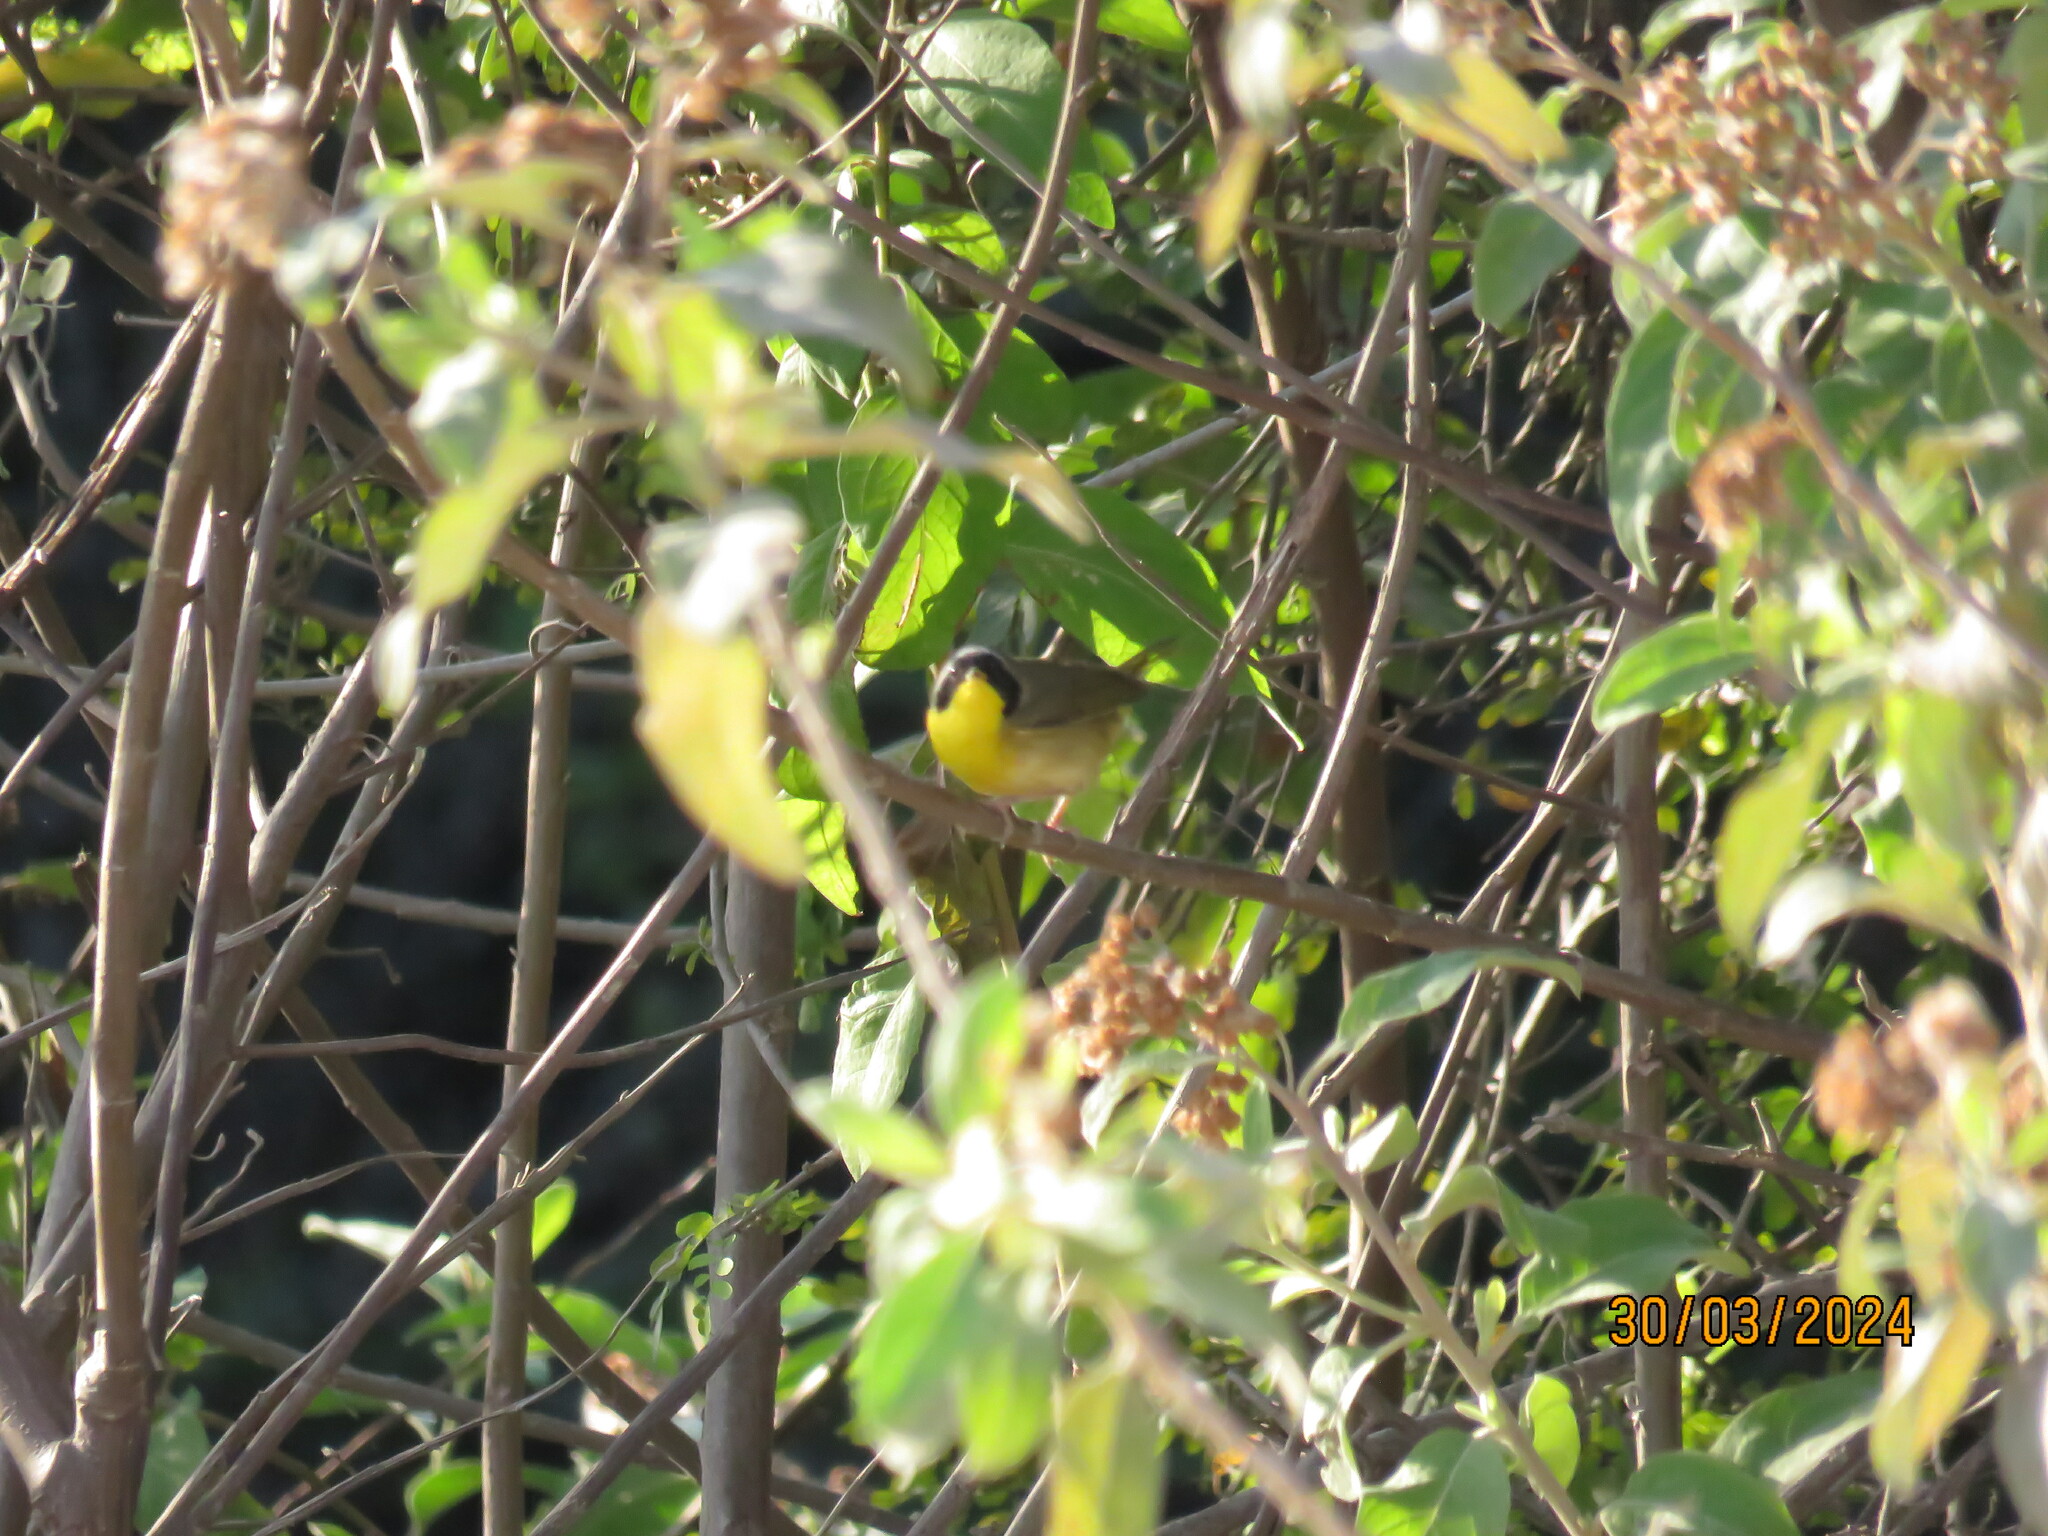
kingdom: Animalia
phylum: Chordata
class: Aves
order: Passeriformes
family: Parulidae
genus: Geothlypis
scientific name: Geothlypis trichas
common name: Common yellowthroat
